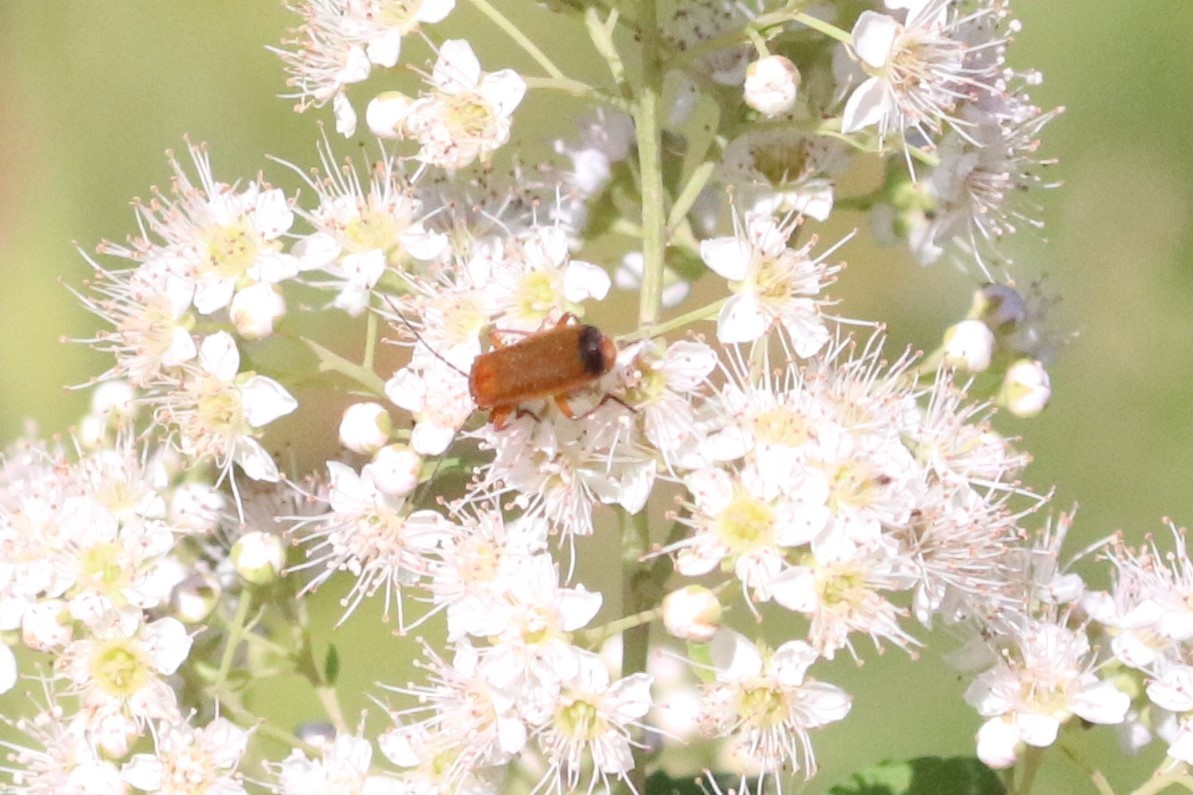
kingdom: Animalia
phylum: Arthropoda
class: Insecta
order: Coleoptera
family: Cantharidae
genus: Rhagonycha
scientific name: Rhagonycha fulva
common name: Common red soldier beetle
